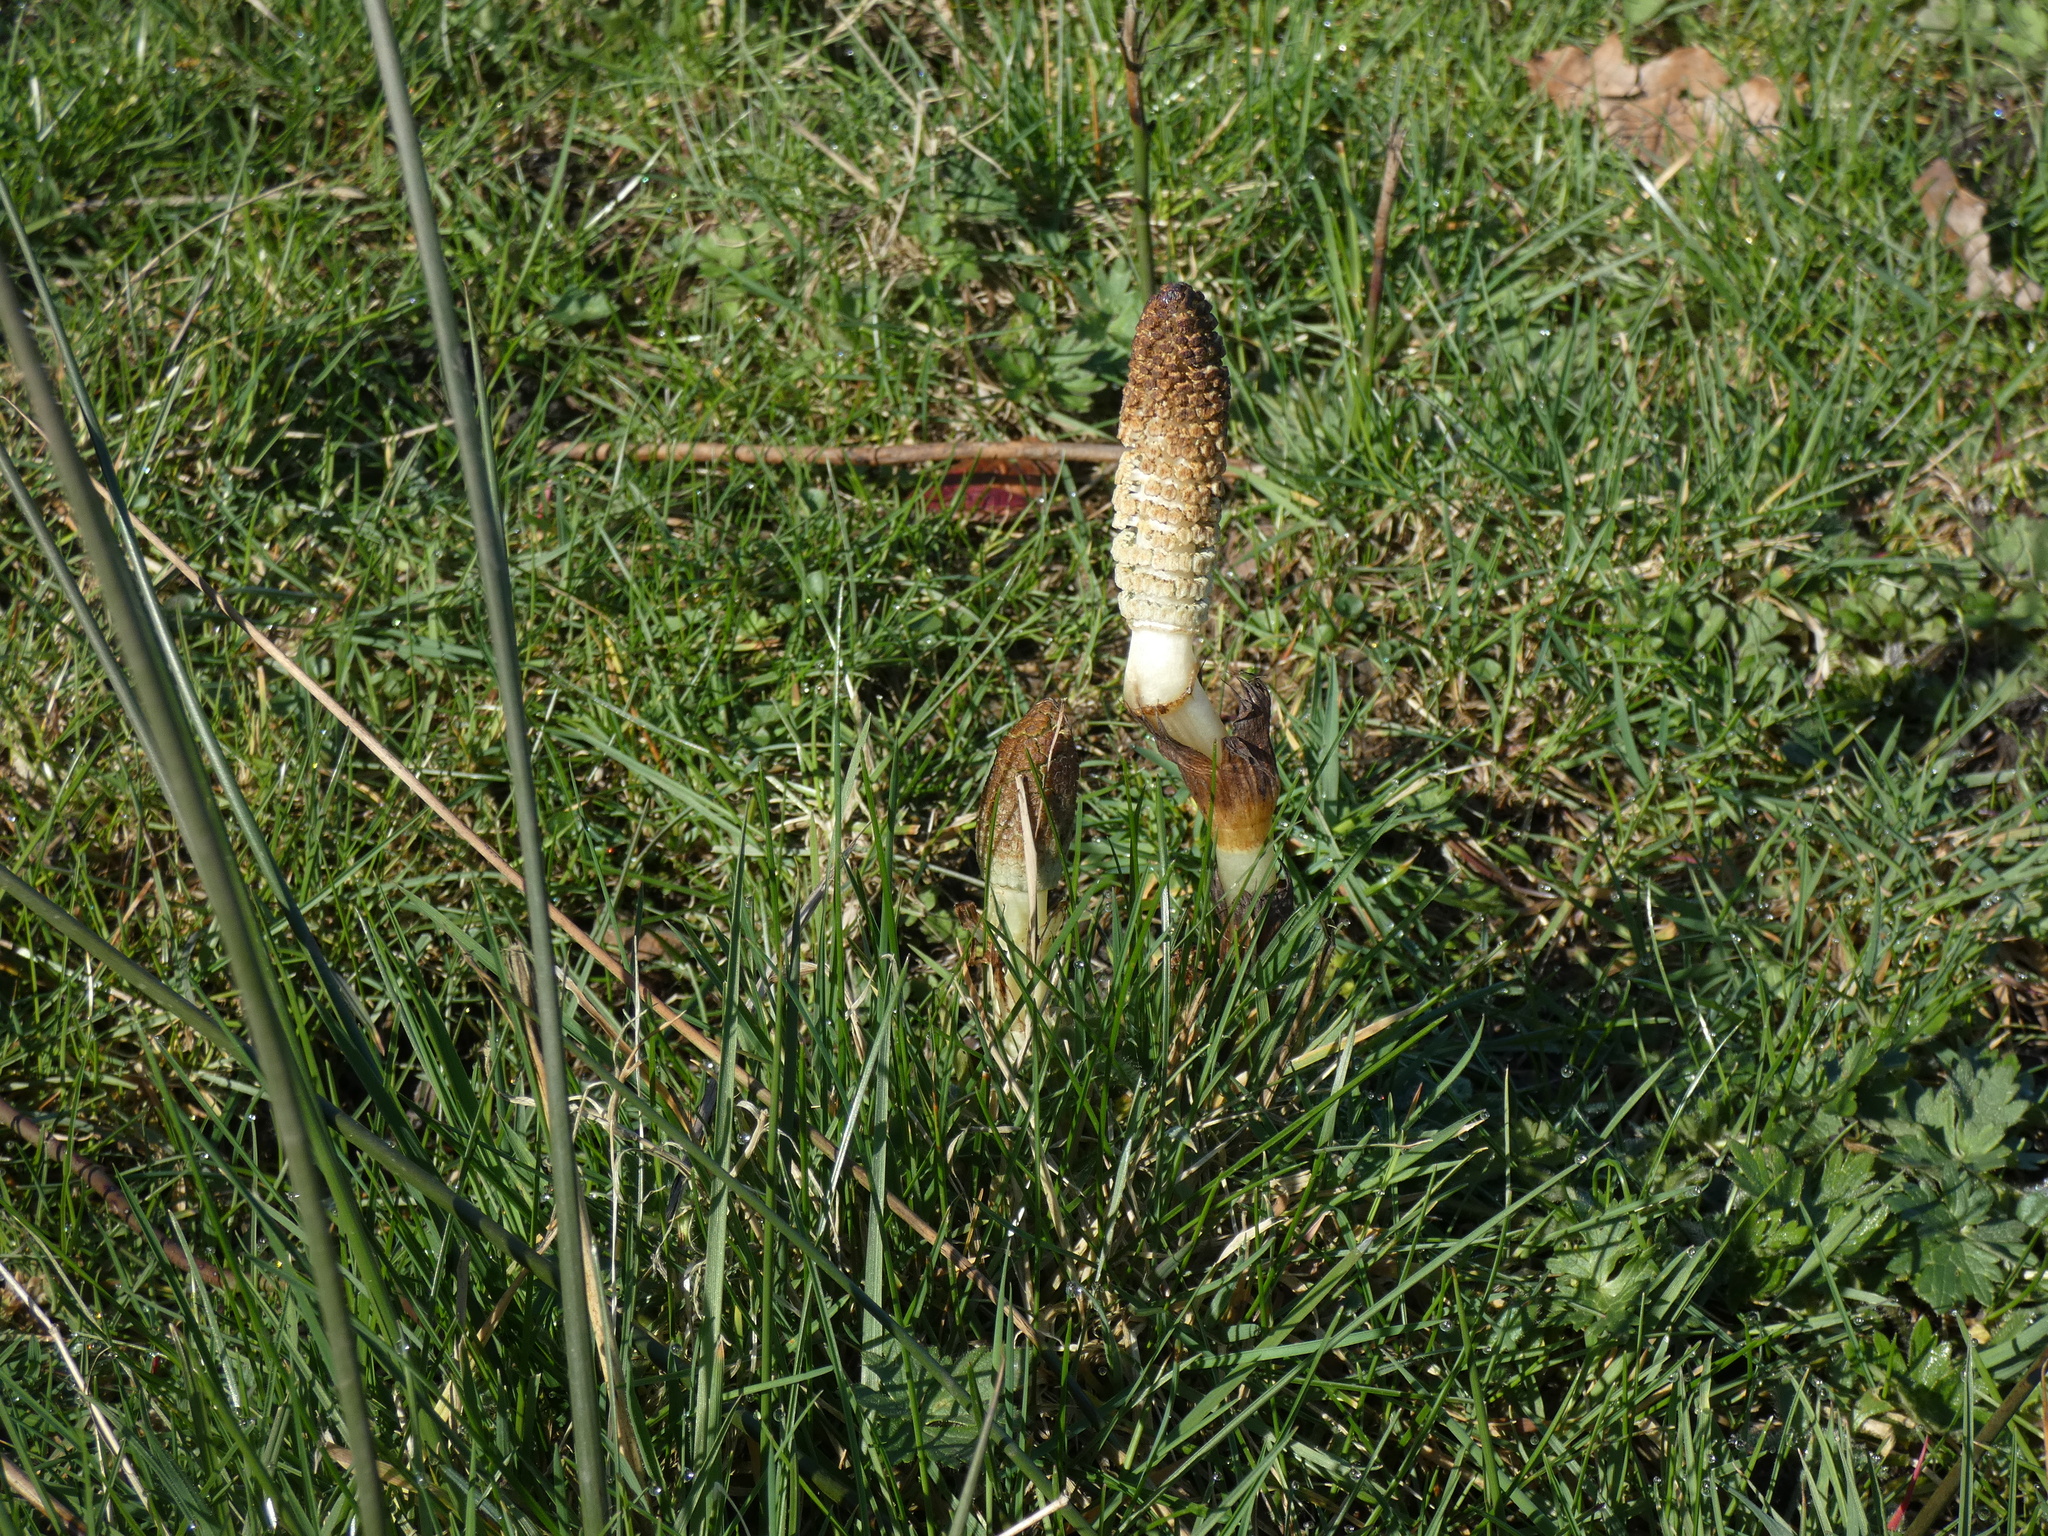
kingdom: Plantae
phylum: Tracheophyta
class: Polypodiopsida
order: Equisetales
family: Equisetaceae
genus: Equisetum
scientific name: Equisetum telmateia
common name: Great horsetail
